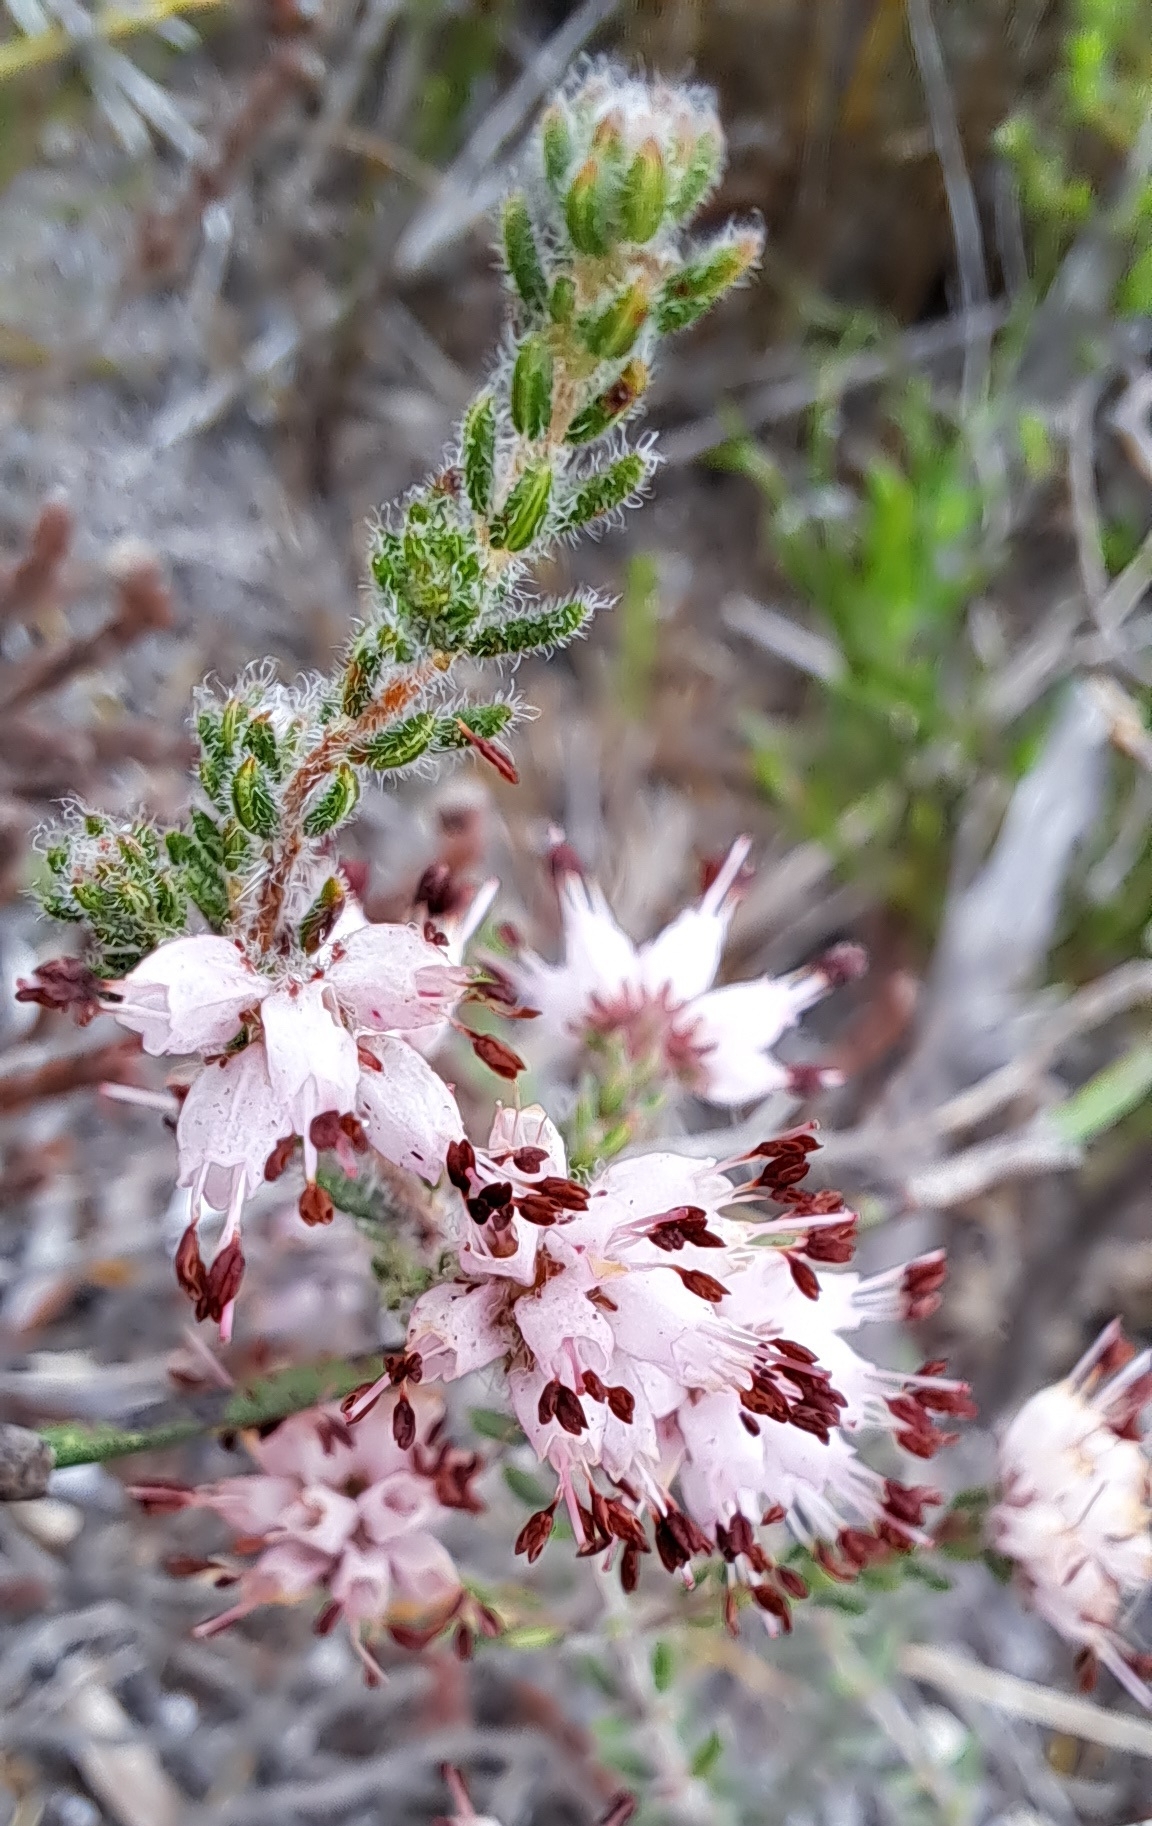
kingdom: Plantae
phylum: Tracheophyta
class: Magnoliopsida
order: Ericales
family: Ericaceae
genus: Erica
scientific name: Erica ericoides
